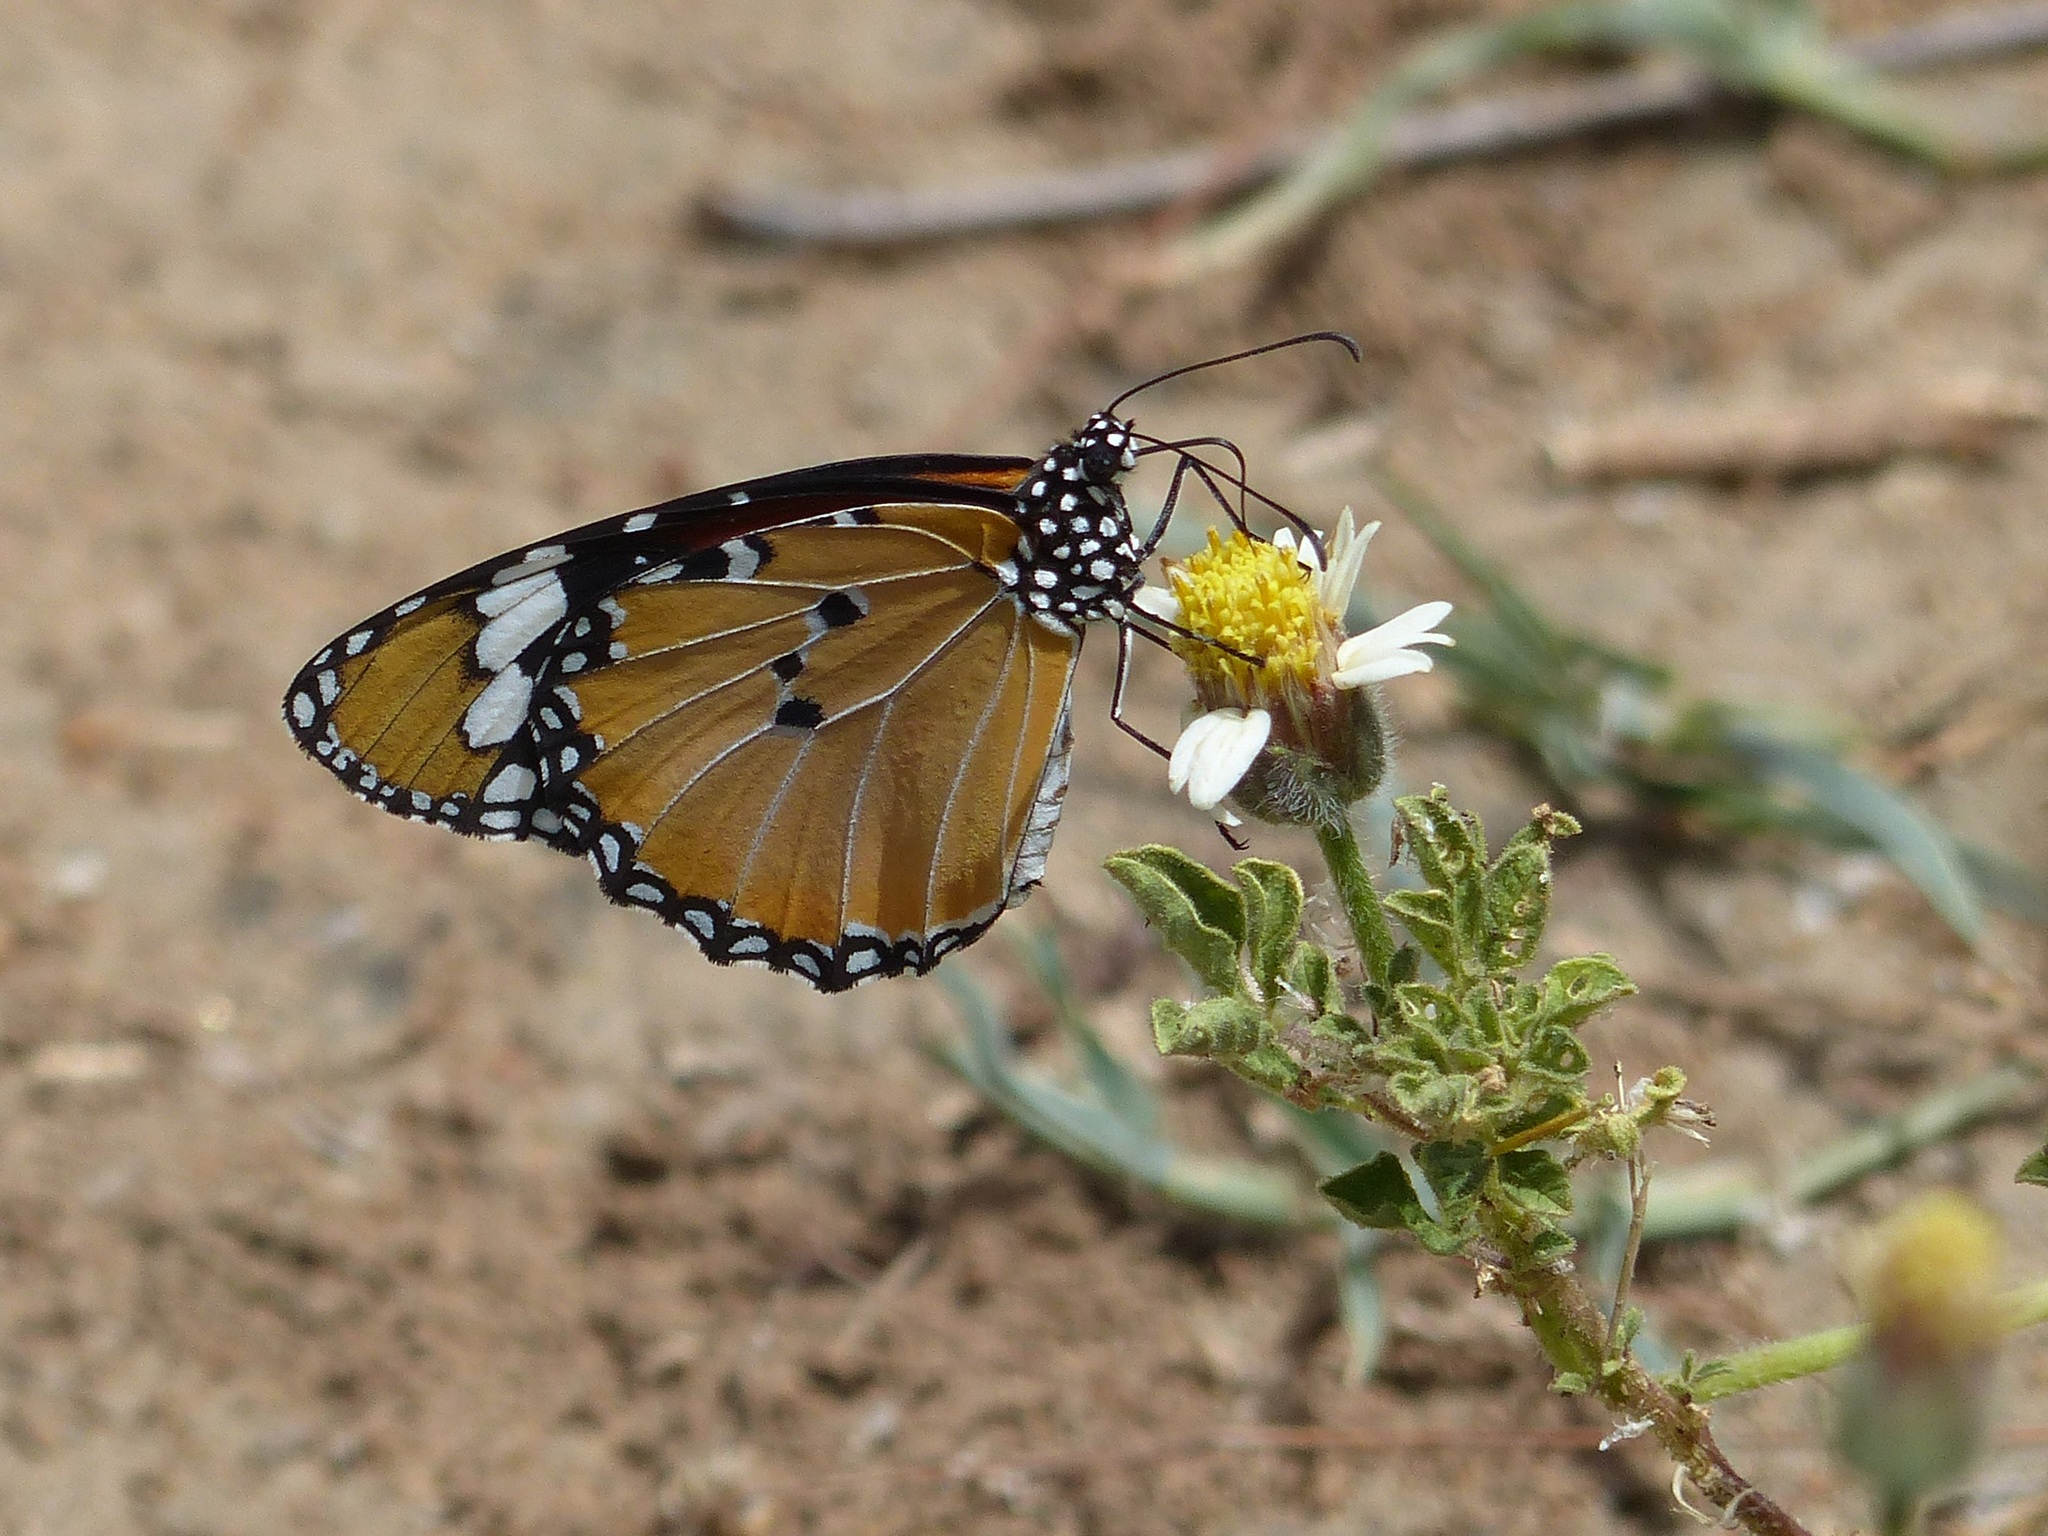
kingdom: Animalia
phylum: Arthropoda
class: Insecta
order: Lepidoptera
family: Nymphalidae
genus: Danaus
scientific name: Danaus chrysippus
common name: Plain tiger
